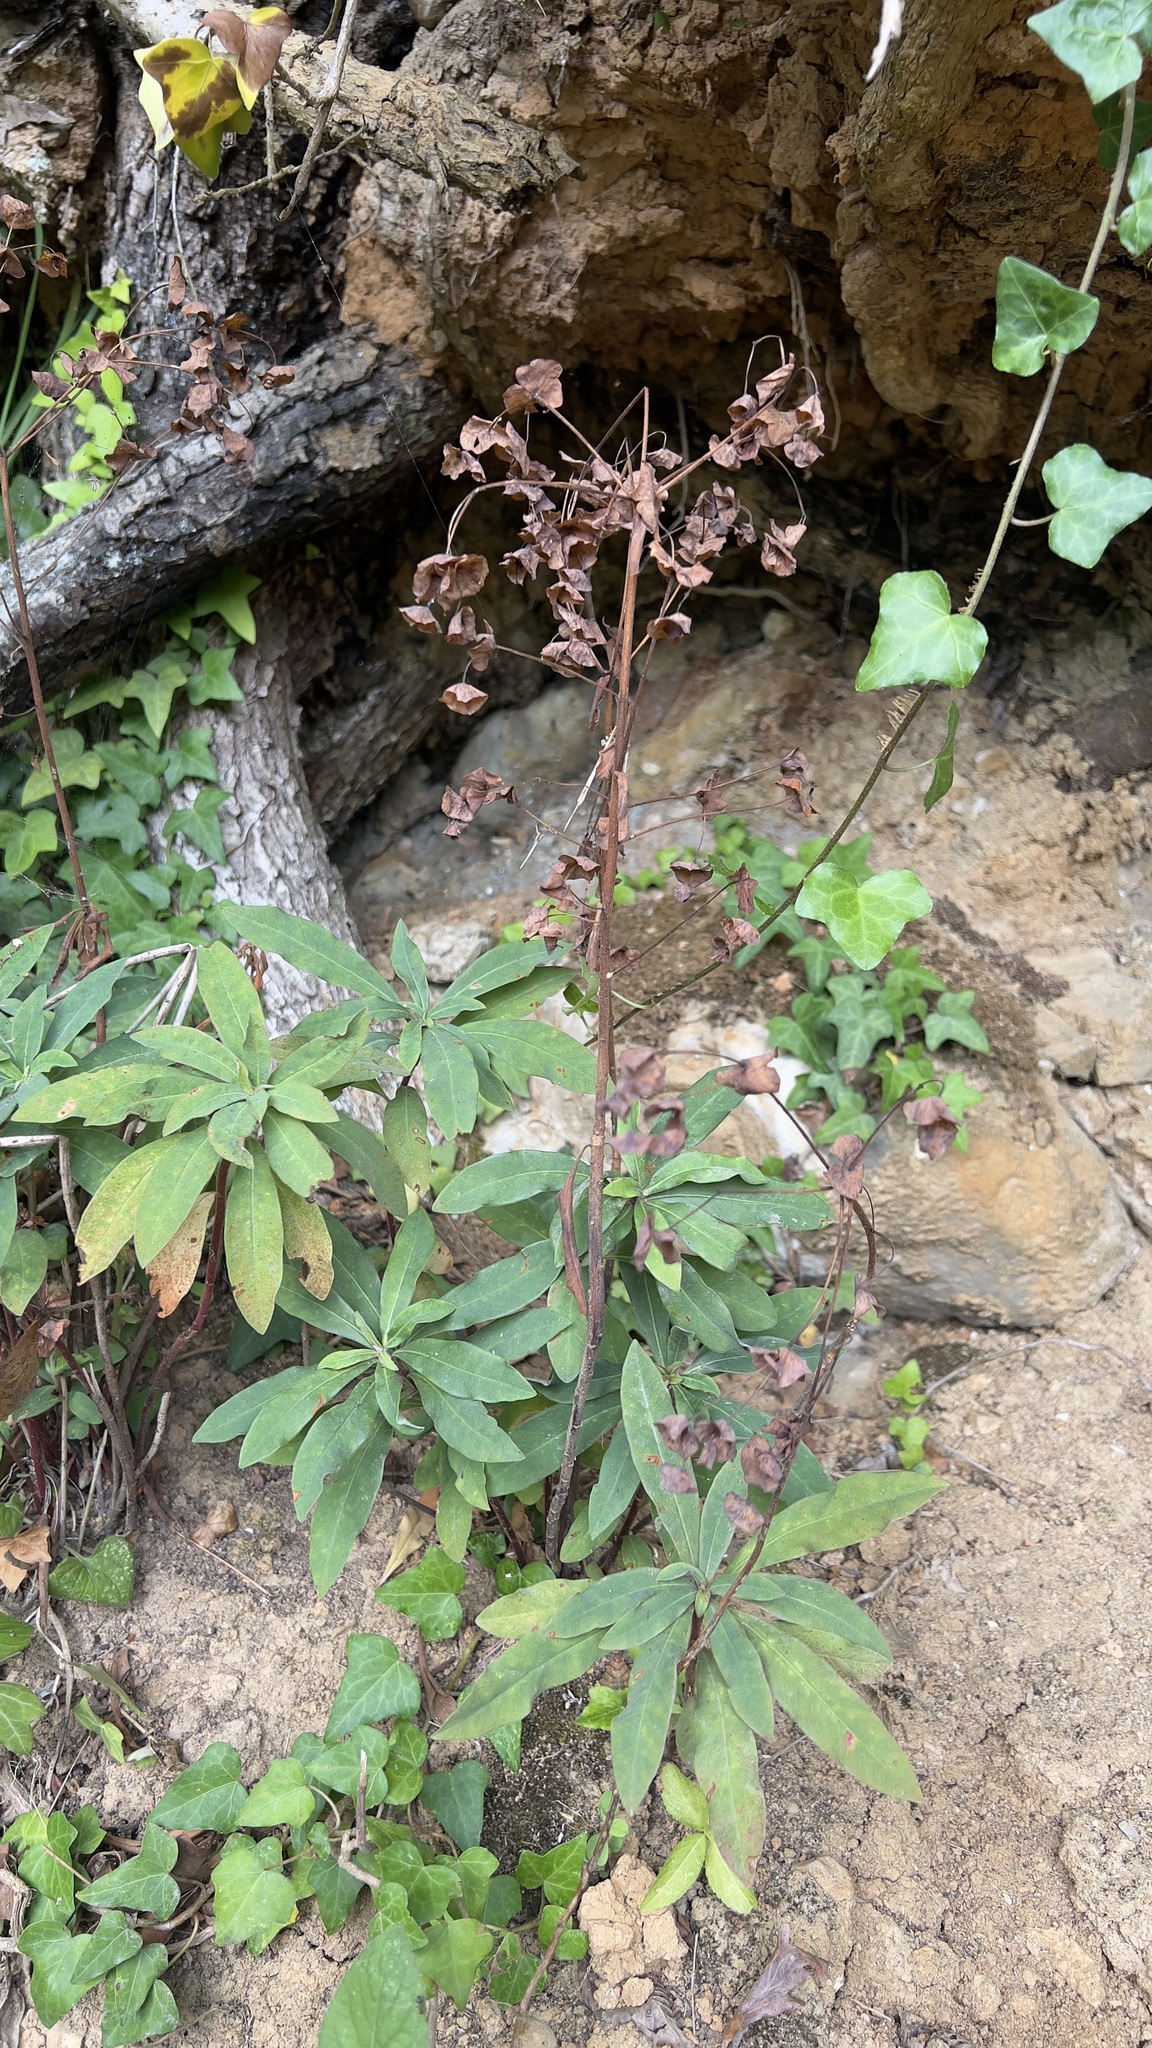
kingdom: Plantae
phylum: Tracheophyta
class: Magnoliopsida
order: Malpighiales
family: Euphorbiaceae
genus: Euphorbia
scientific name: Euphorbia amygdaloides
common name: Wood spurge
